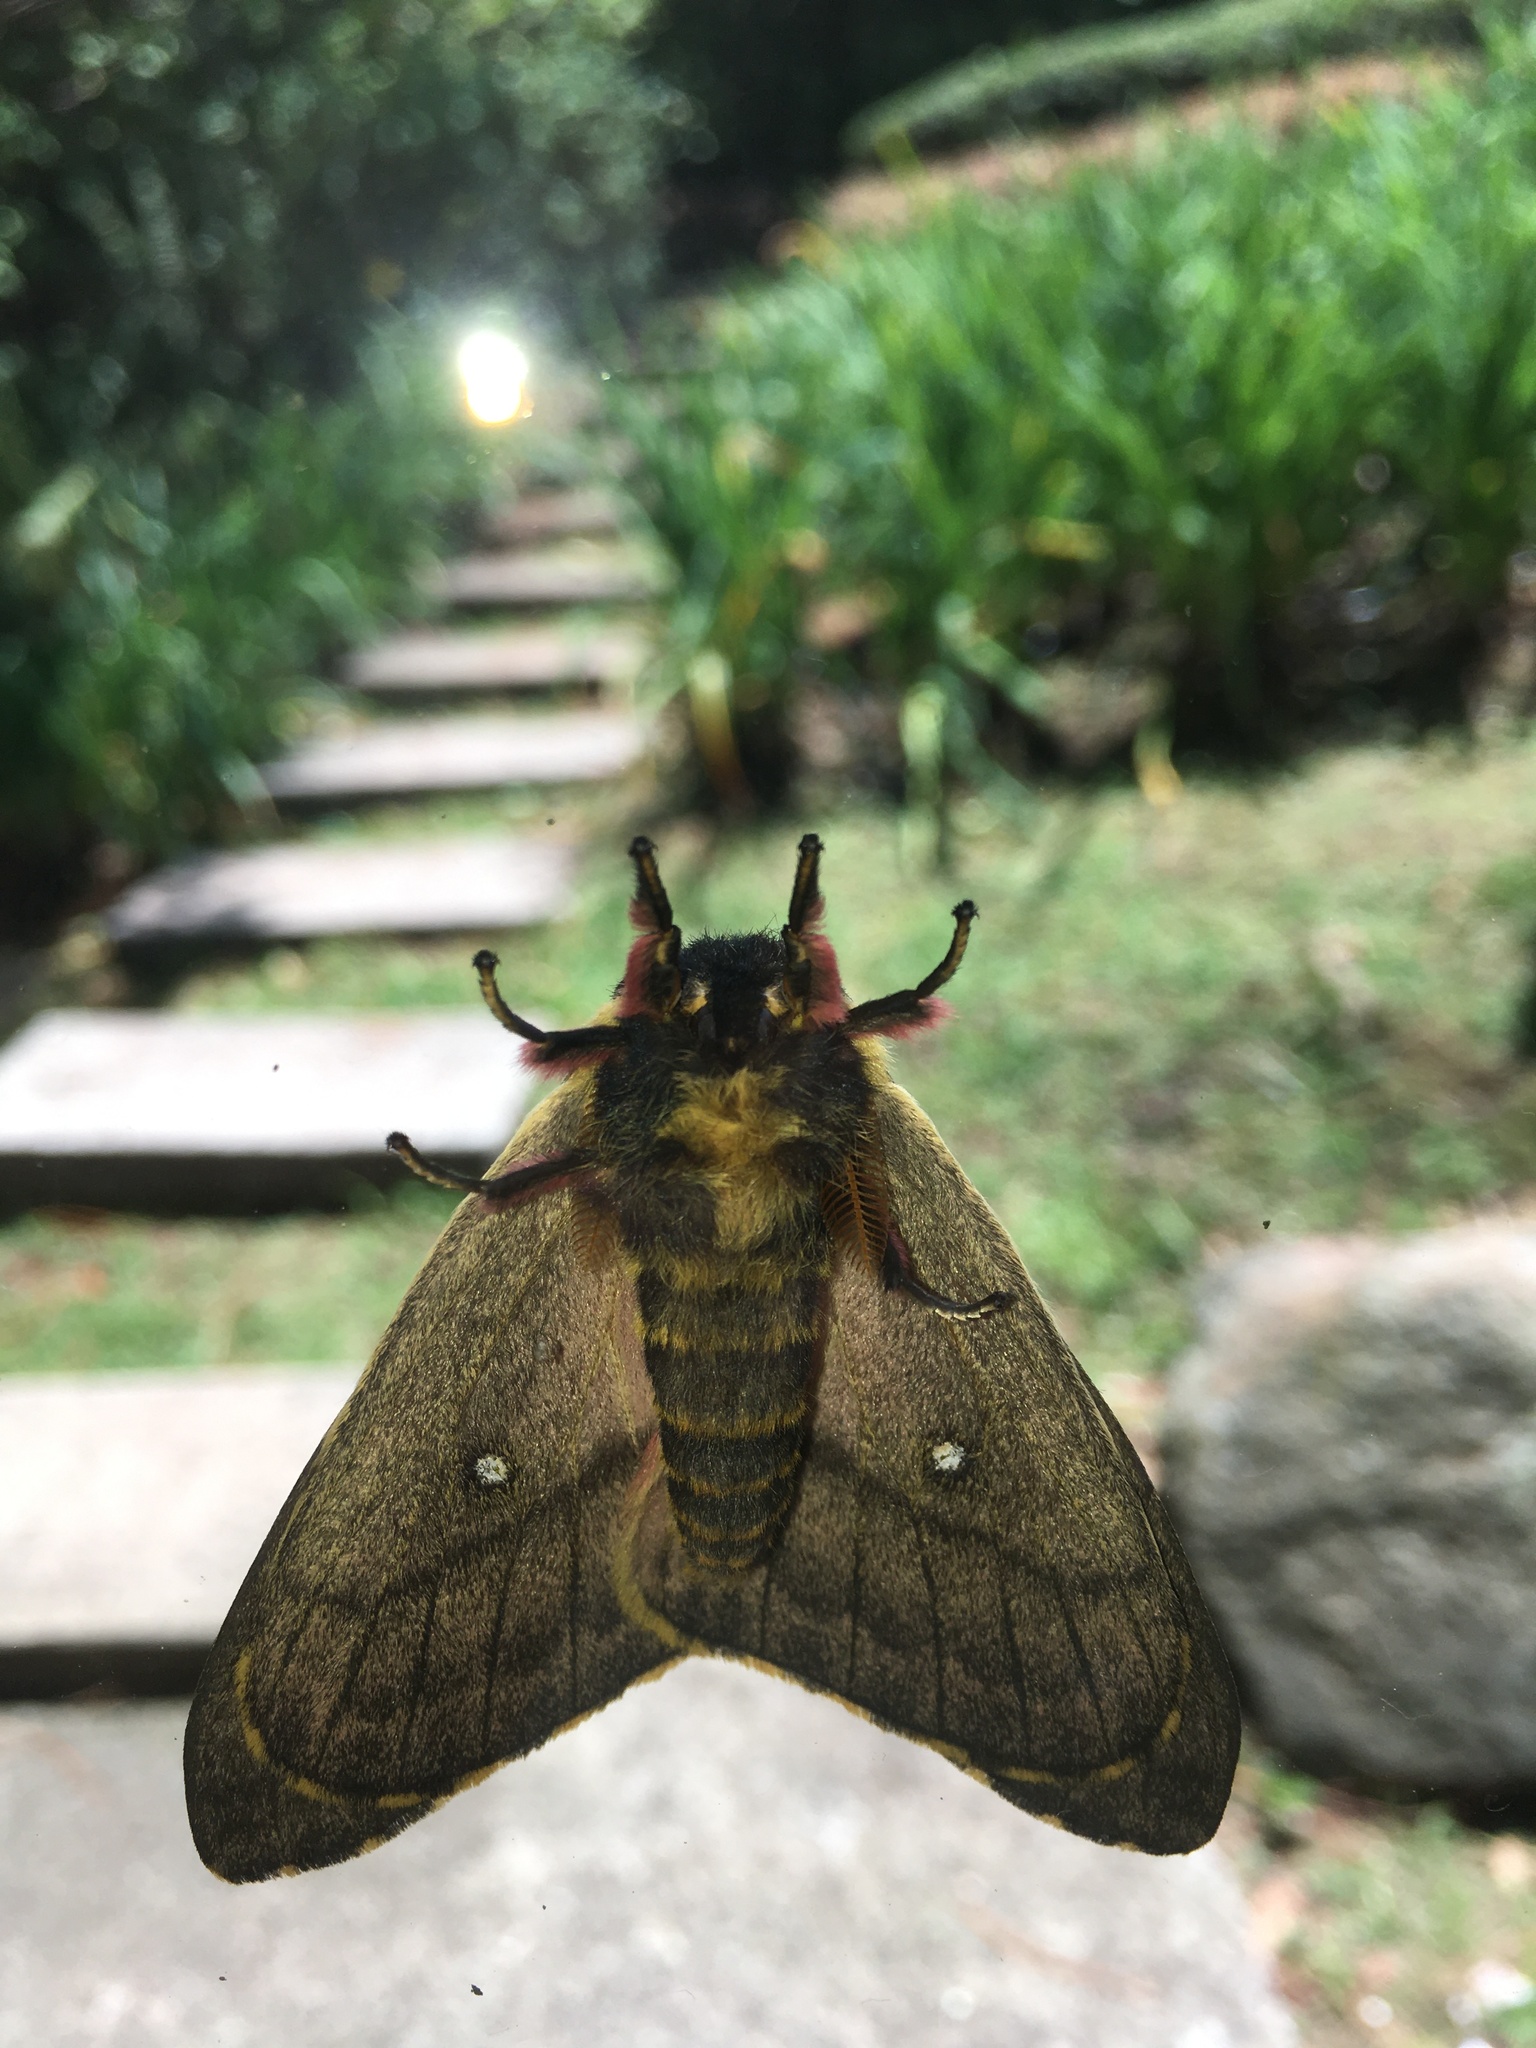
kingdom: Animalia
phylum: Arthropoda
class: Insecta
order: Lepidoptera
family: Saturniidae
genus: Erythromeris
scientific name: Erythromeris saturniata
